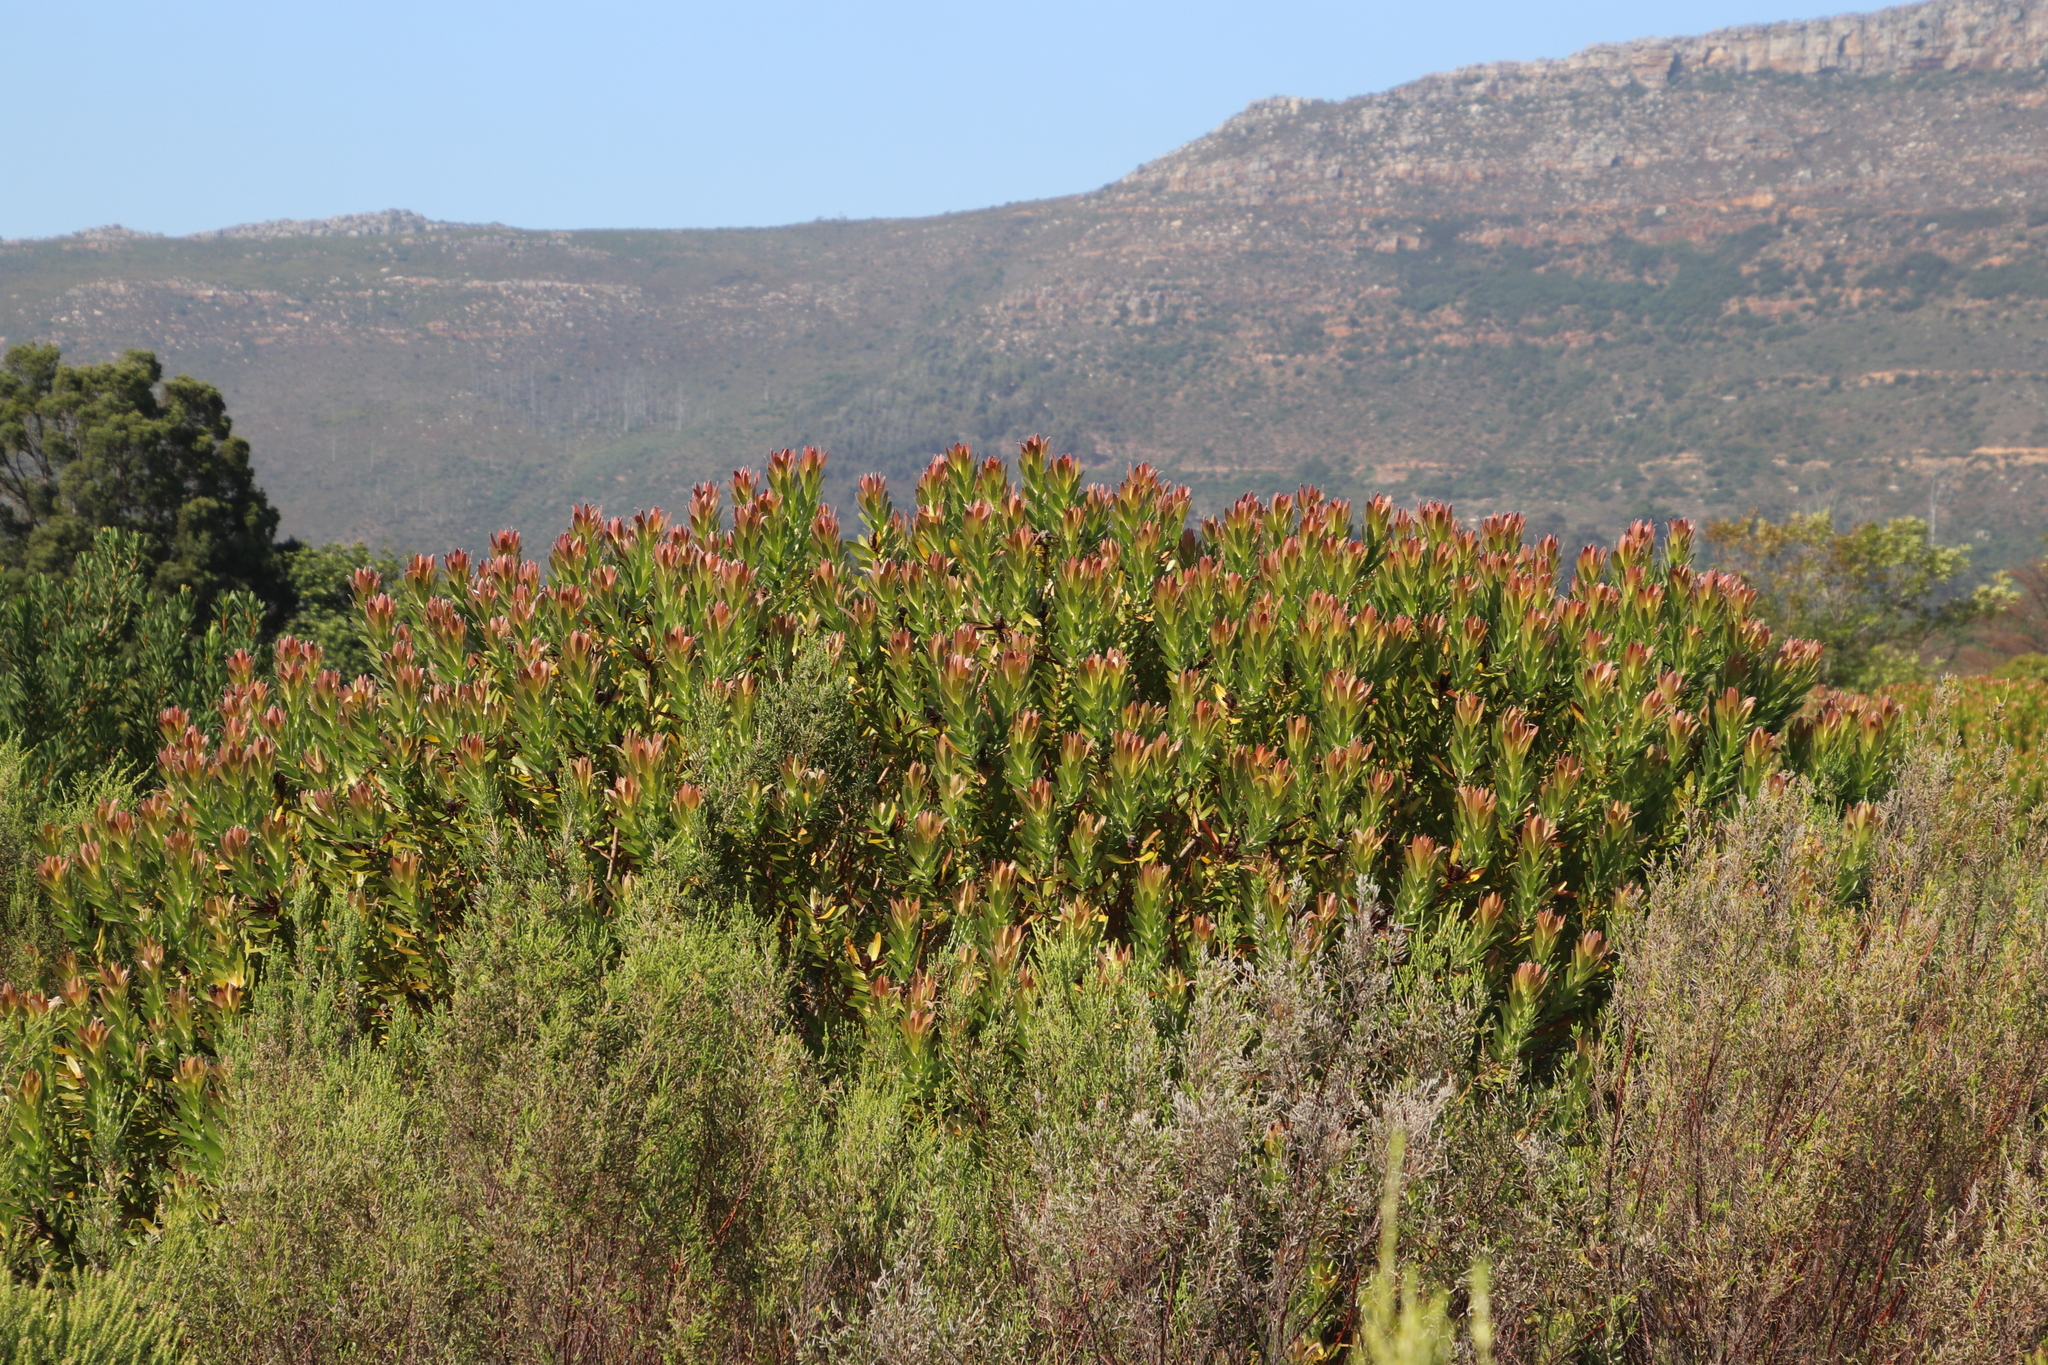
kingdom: Plantae
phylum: Tracheophyta
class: Magnoliopsida
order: Proteales
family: Proteaceae
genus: Leucadendron
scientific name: Leucadendron laureolum
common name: Golden sunshinebush
